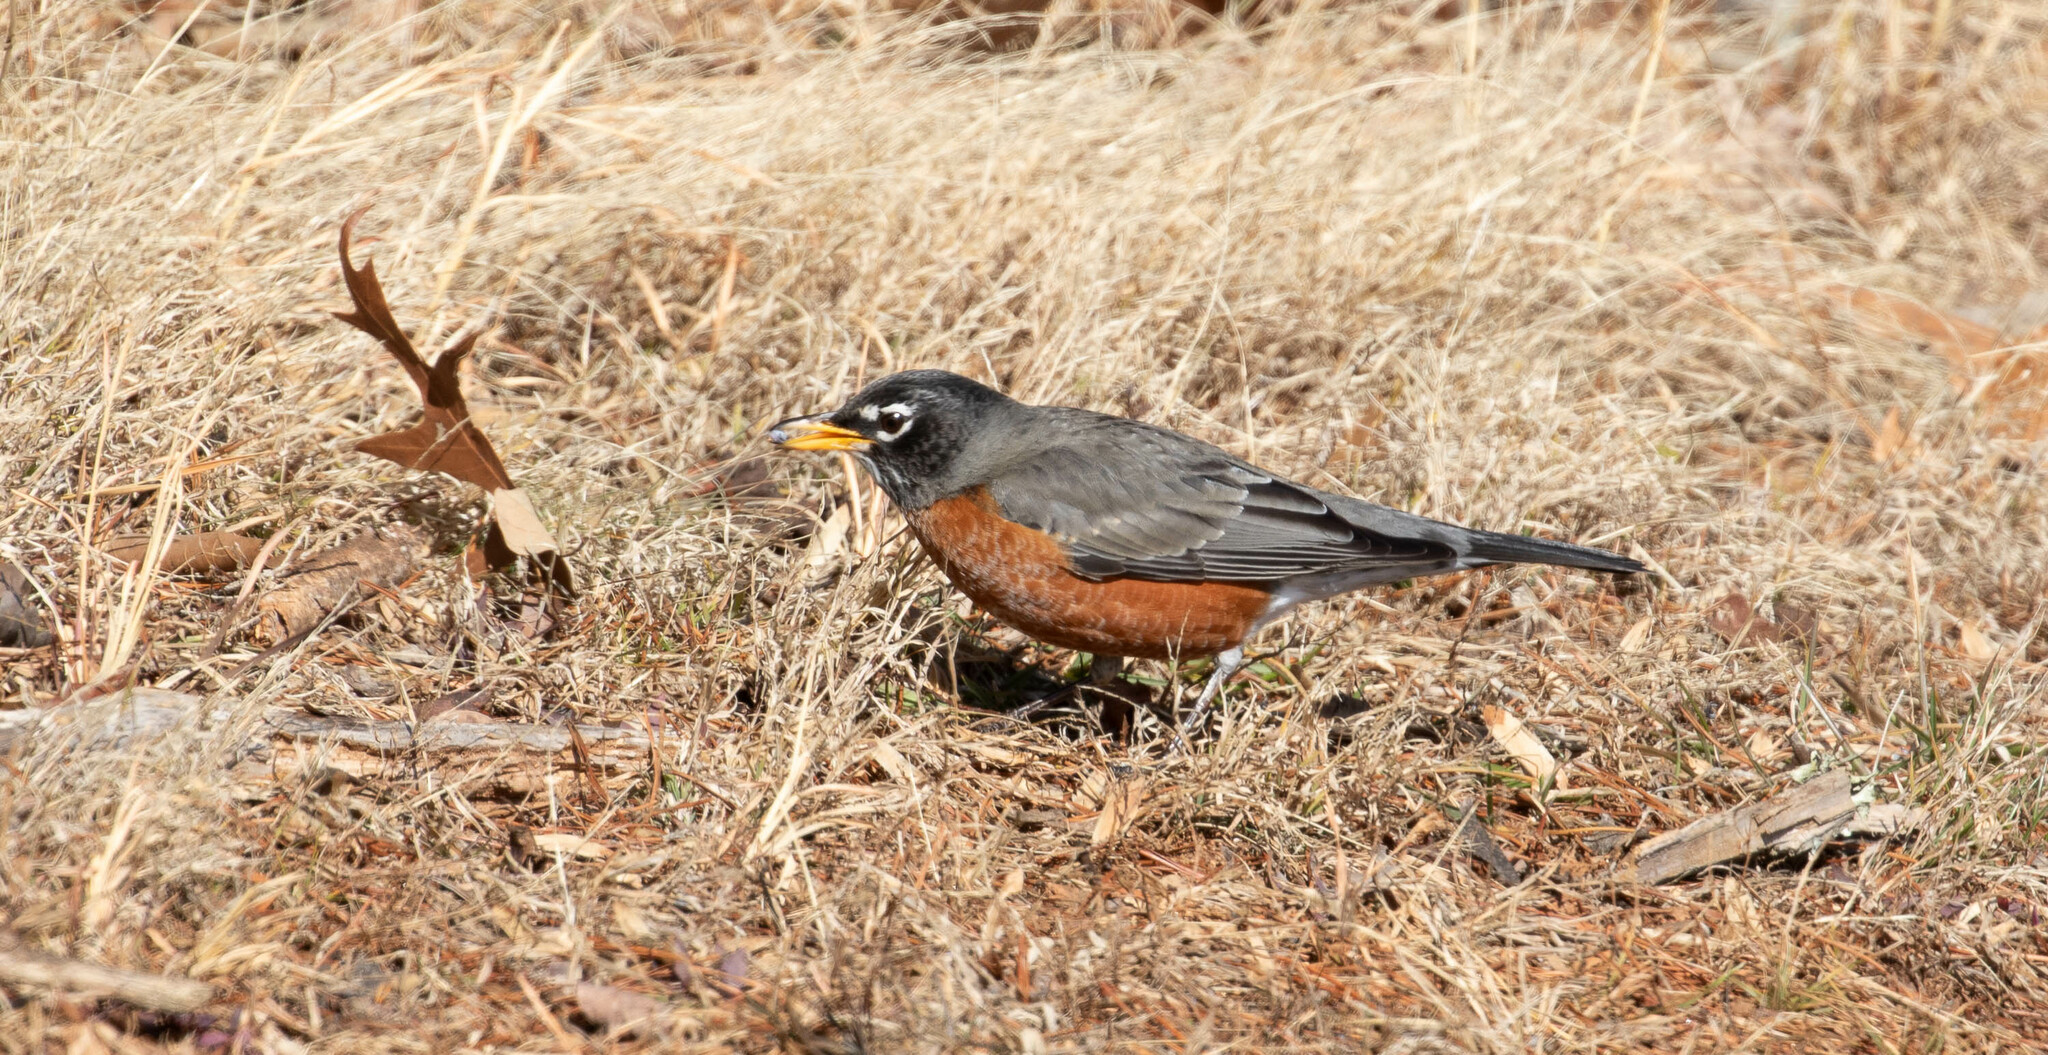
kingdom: Animalia
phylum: Chordata
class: Aves
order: Passeriformes
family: Turdidae
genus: Turdus
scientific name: Turdus migratorius
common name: American robin
